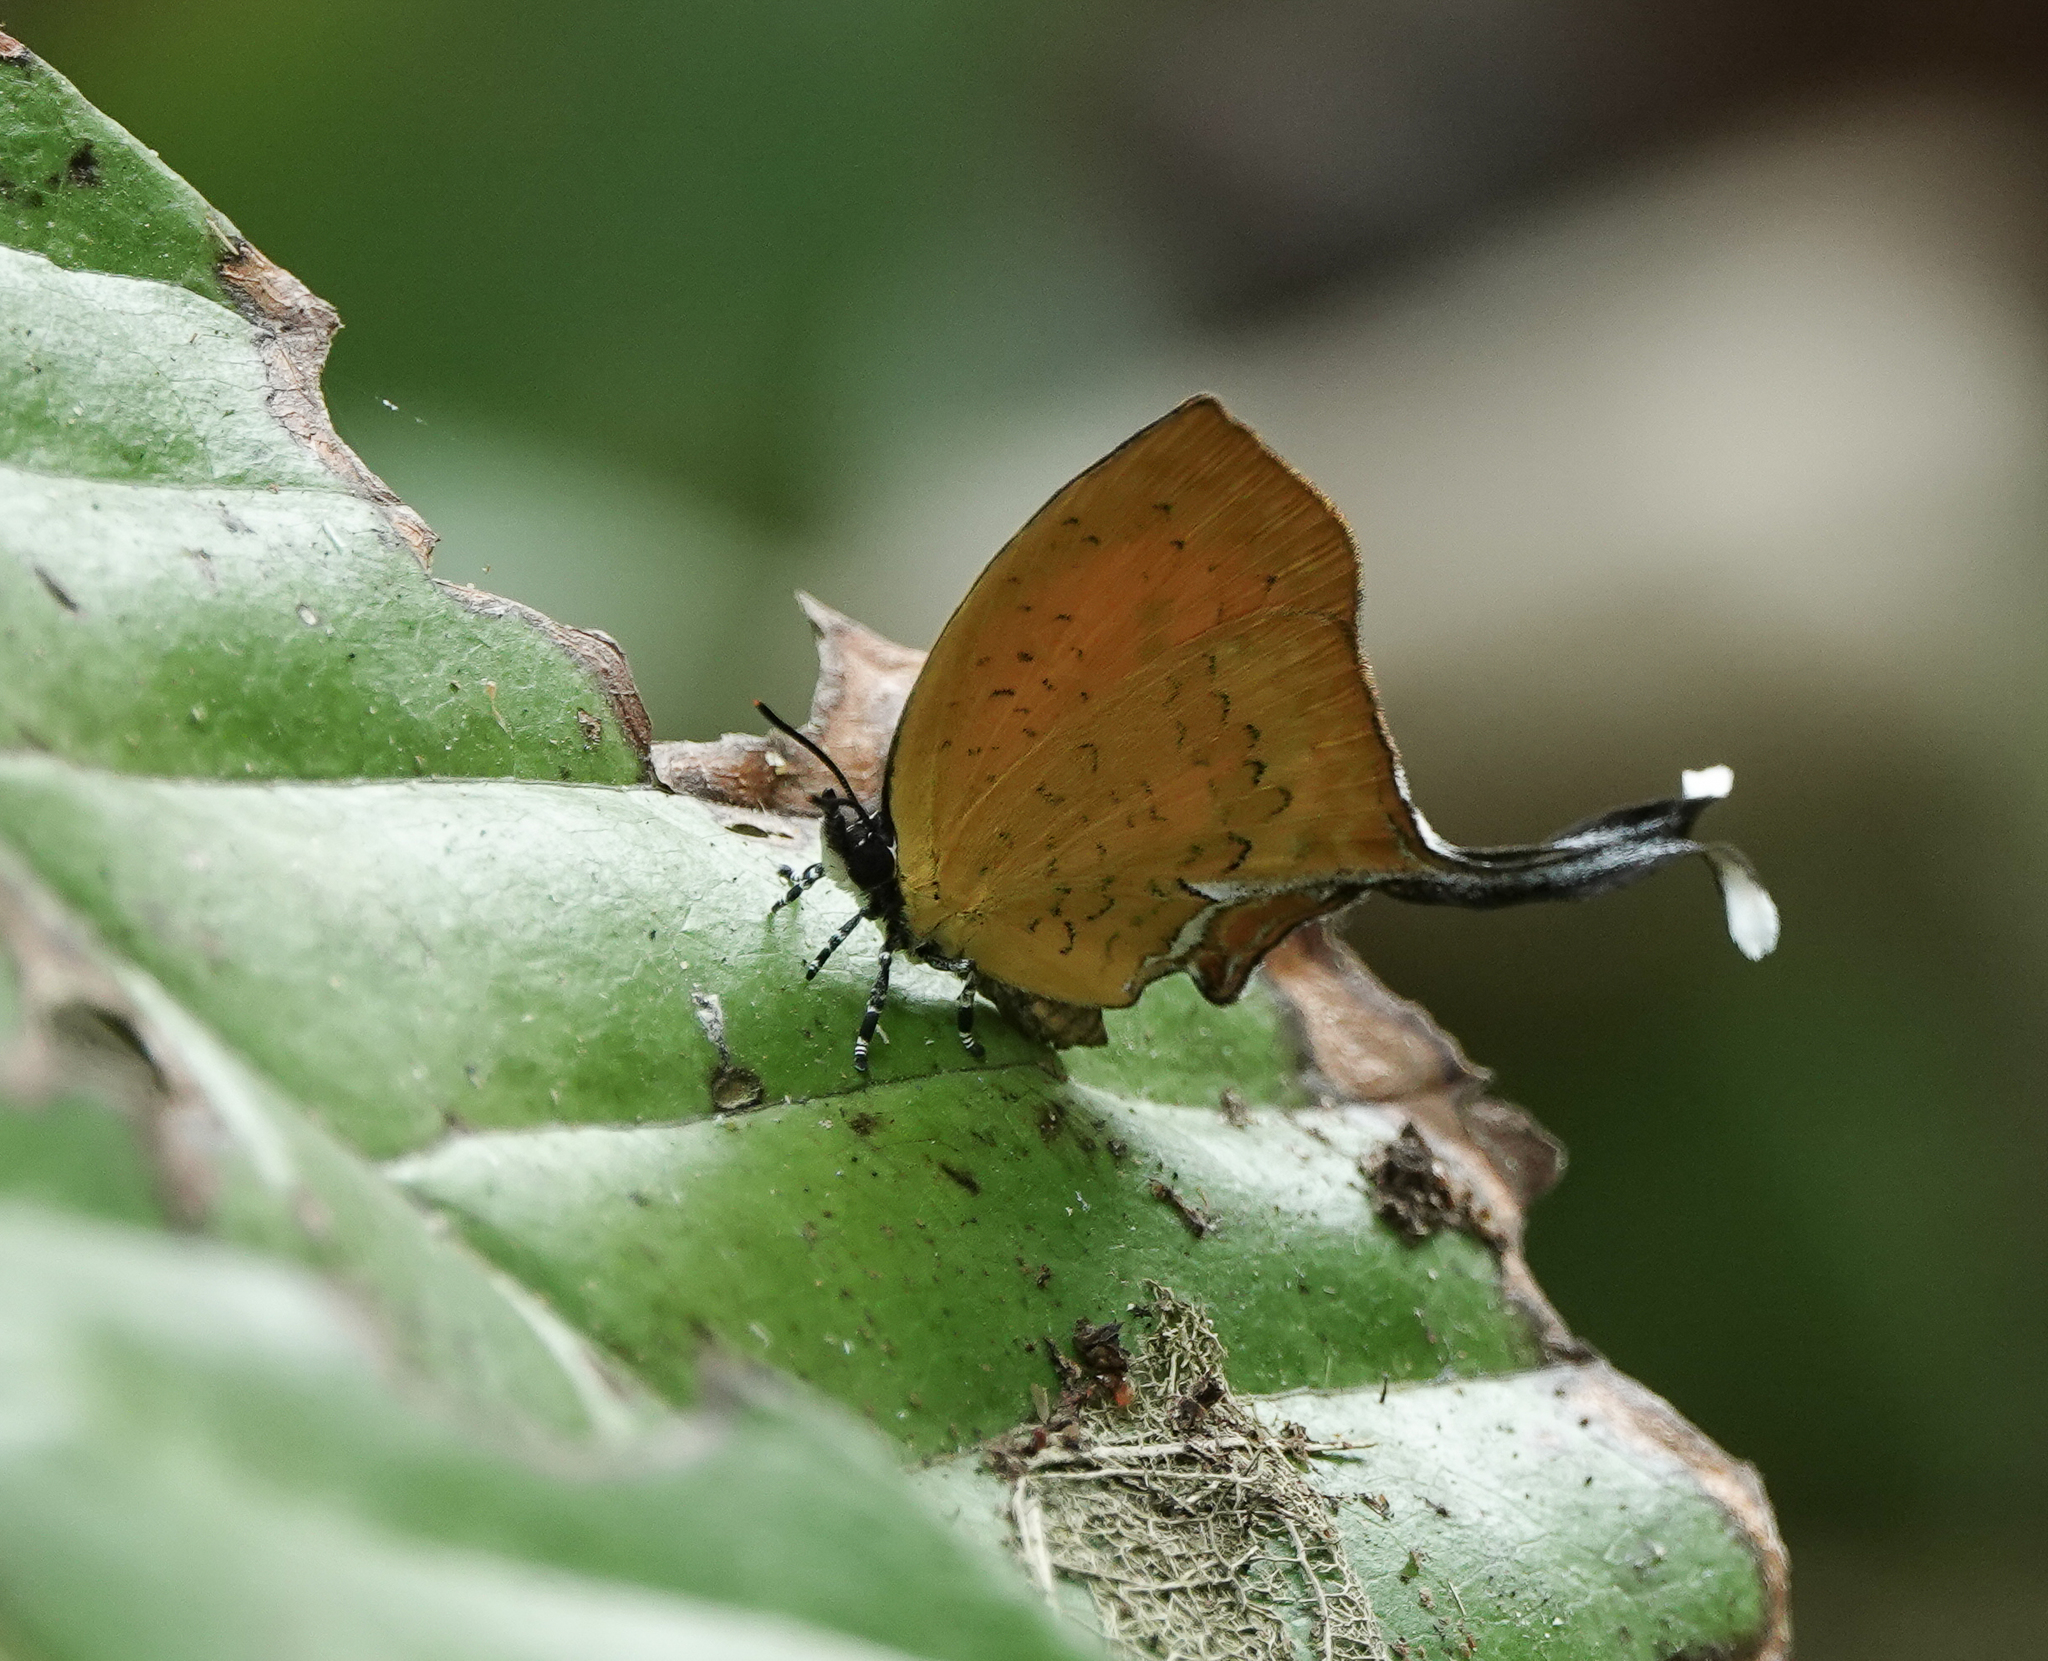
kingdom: Animalia
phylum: Arthropoda
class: Insecta
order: Lepidoptera
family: Lycaenidae
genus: Yasoda
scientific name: Yasoda tripunctata
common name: Branded yamfly
